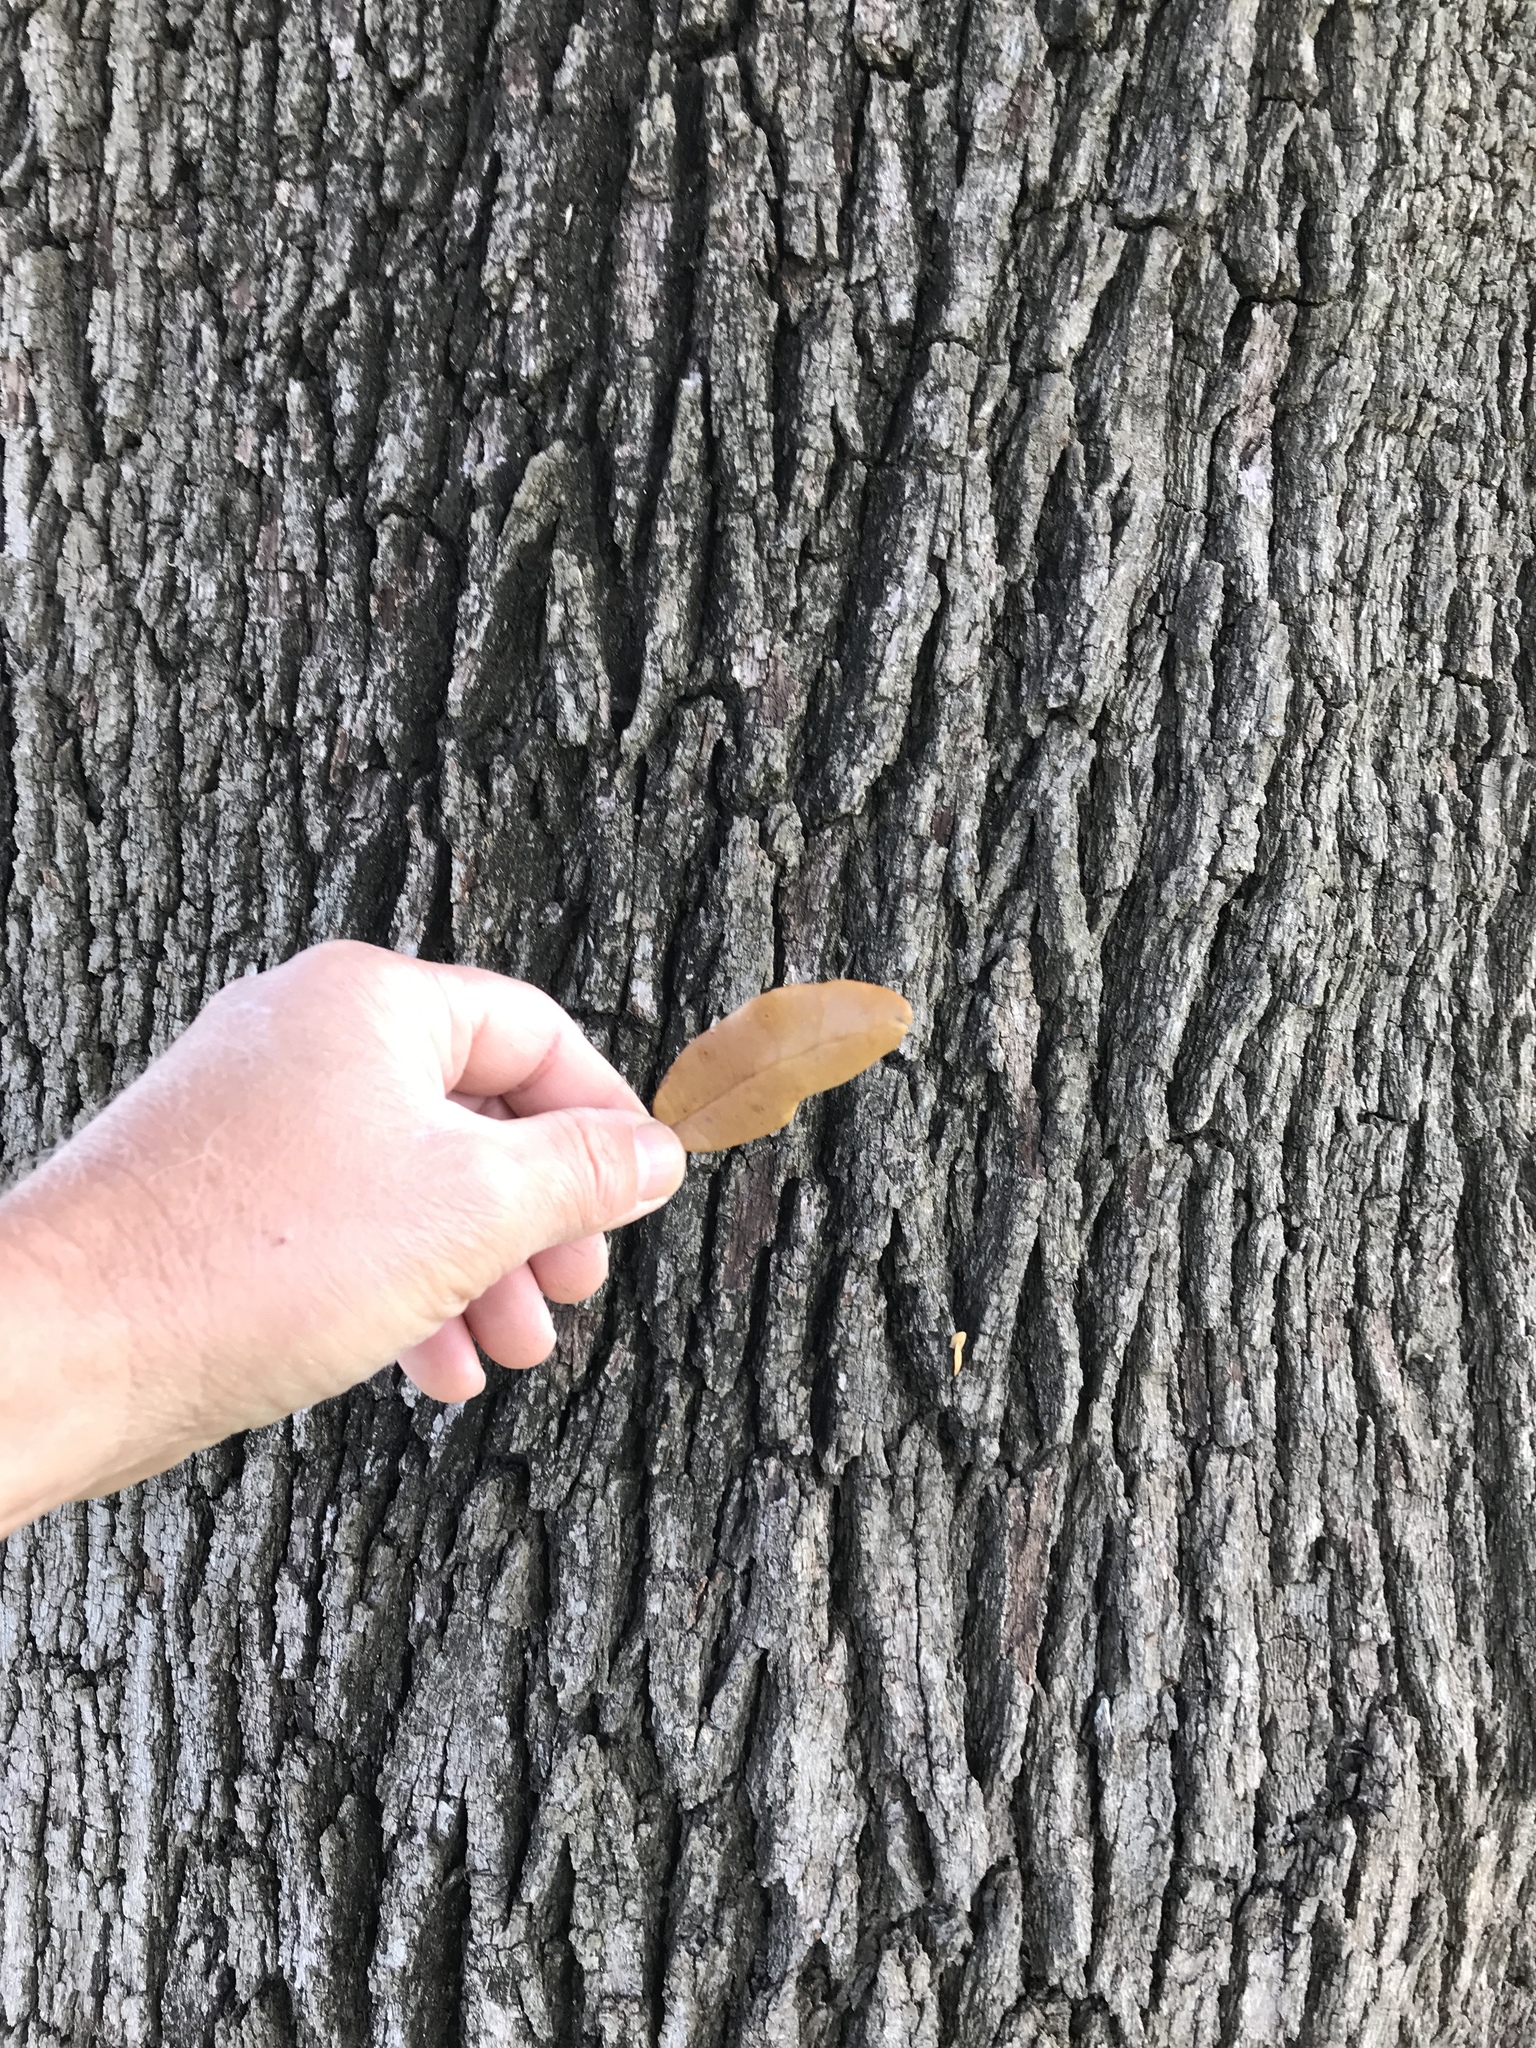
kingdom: Plantae
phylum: Tracheophyta
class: Magnoliopsida
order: Fagales
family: Fagaceae
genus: Quercus
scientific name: Quercus fusiformis
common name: Texas live oak
